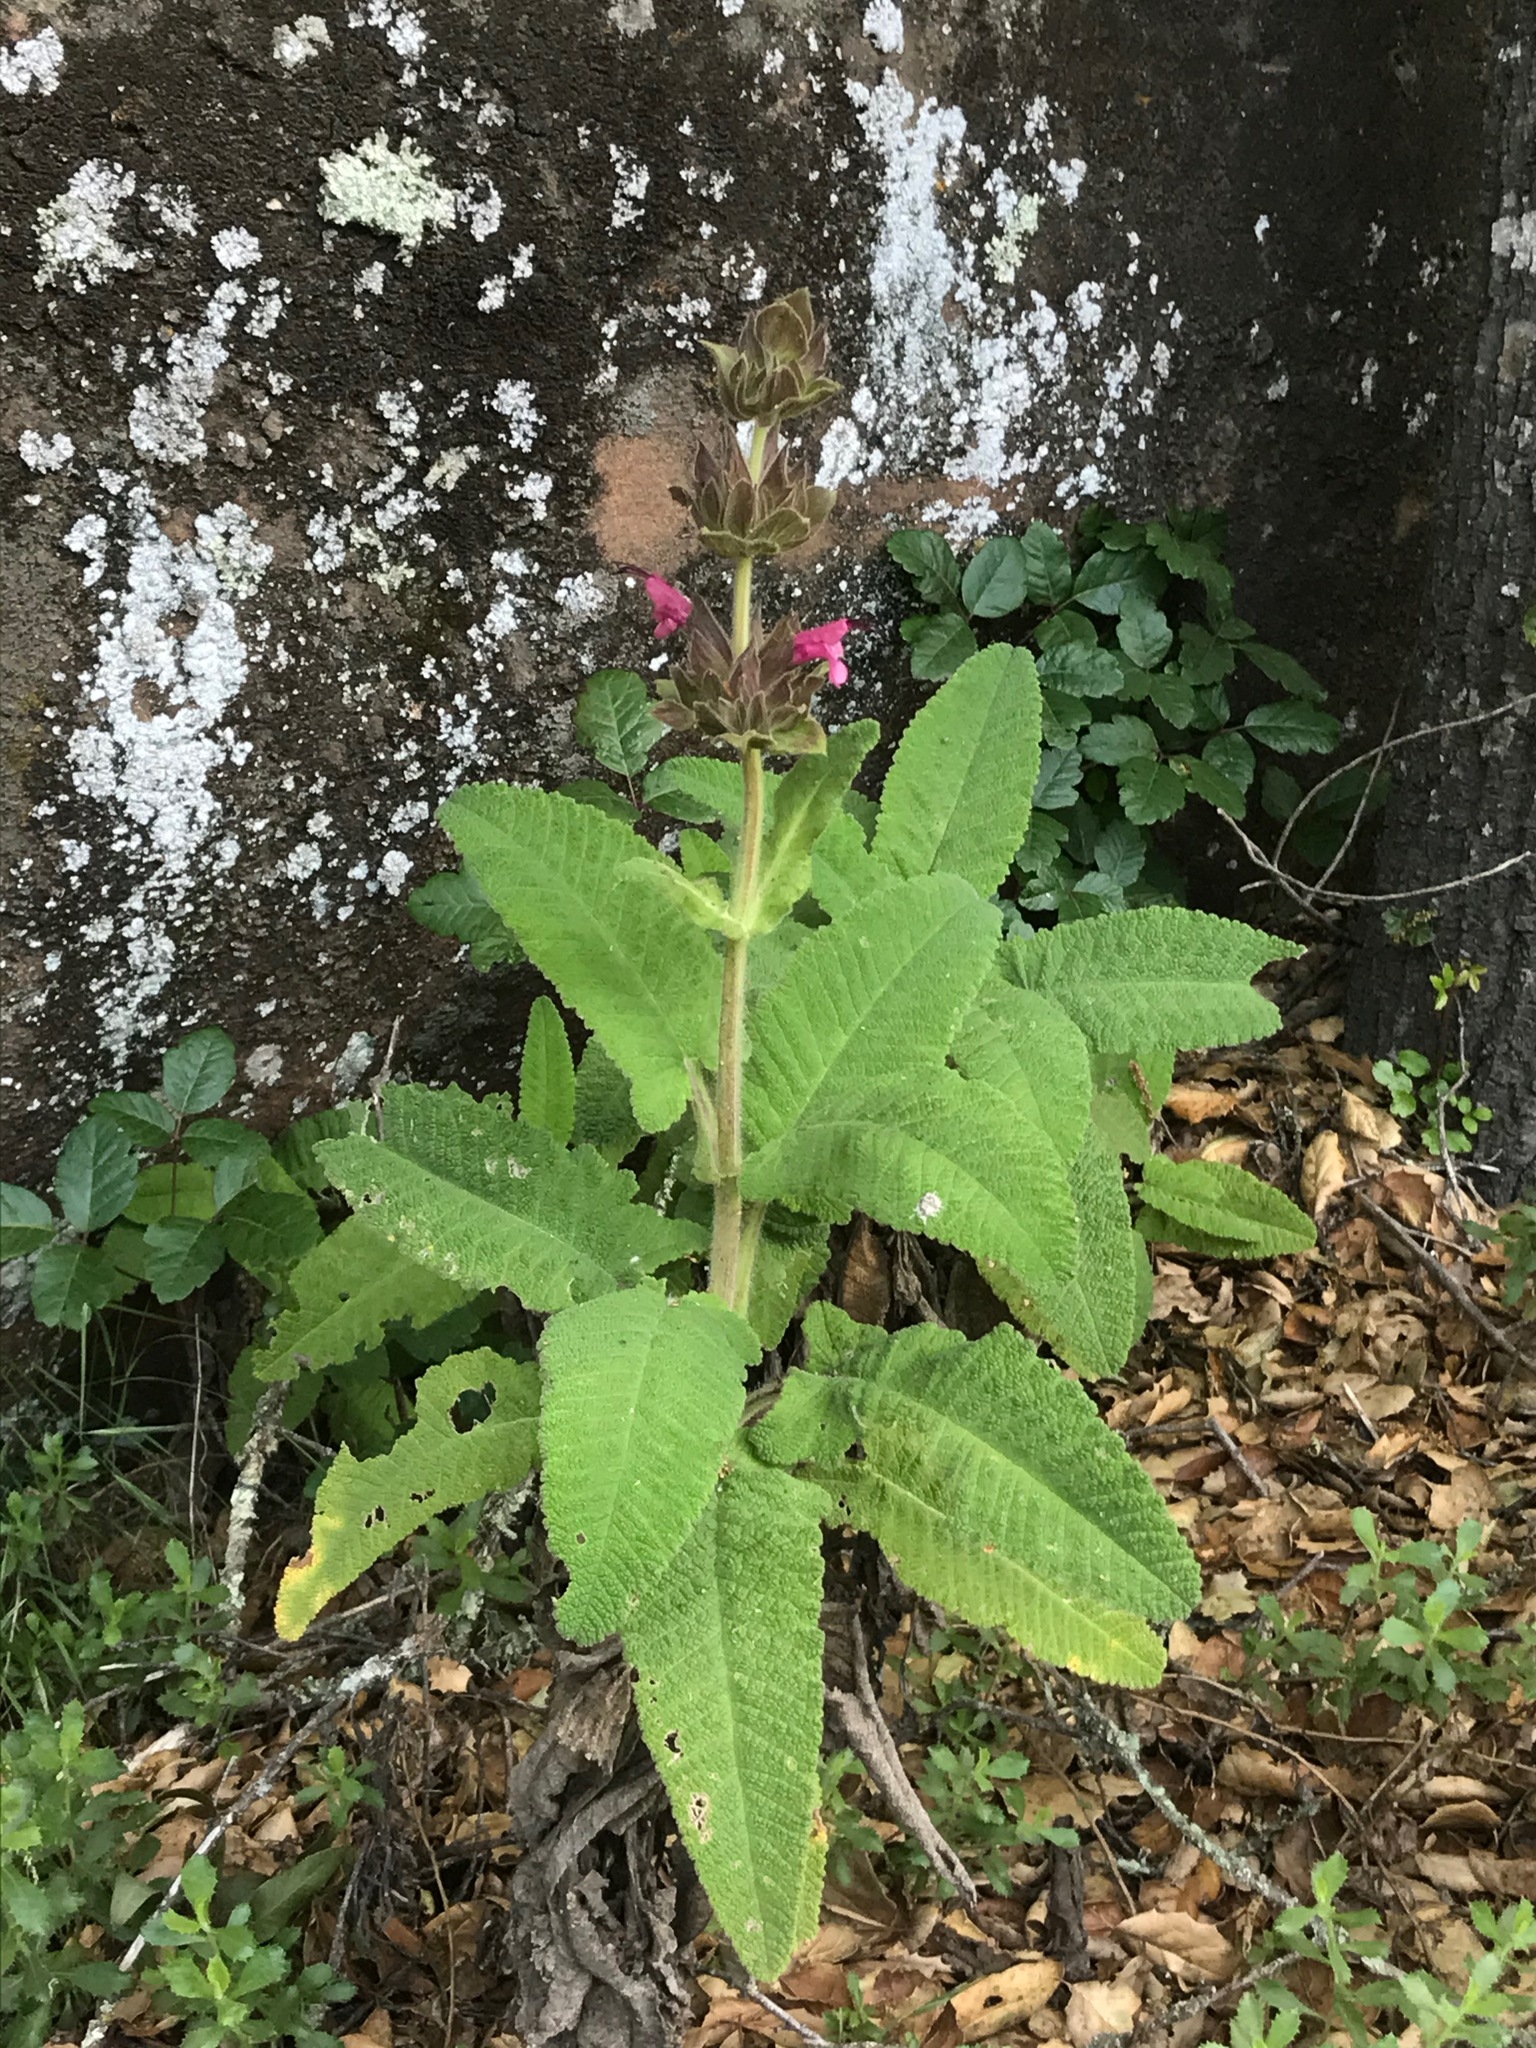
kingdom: Plantae
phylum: Tracheophyta
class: Magnoliopsida
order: Lamiales
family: Lamiaceae
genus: Salvia
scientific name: Salvia spathacea
